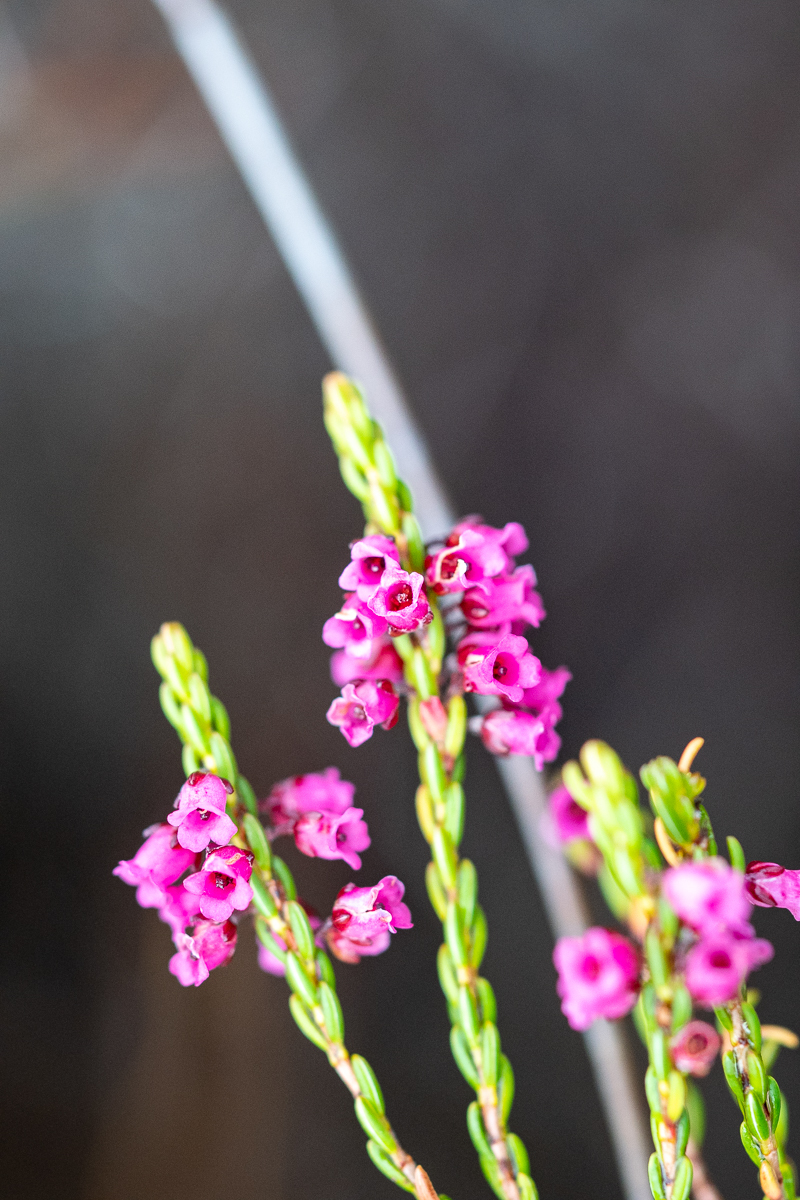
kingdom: Plantae
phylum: Tracheophyta
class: Magnoliopsida
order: Ericales
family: Ericaceae
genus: Erica
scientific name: Erica pulchella
